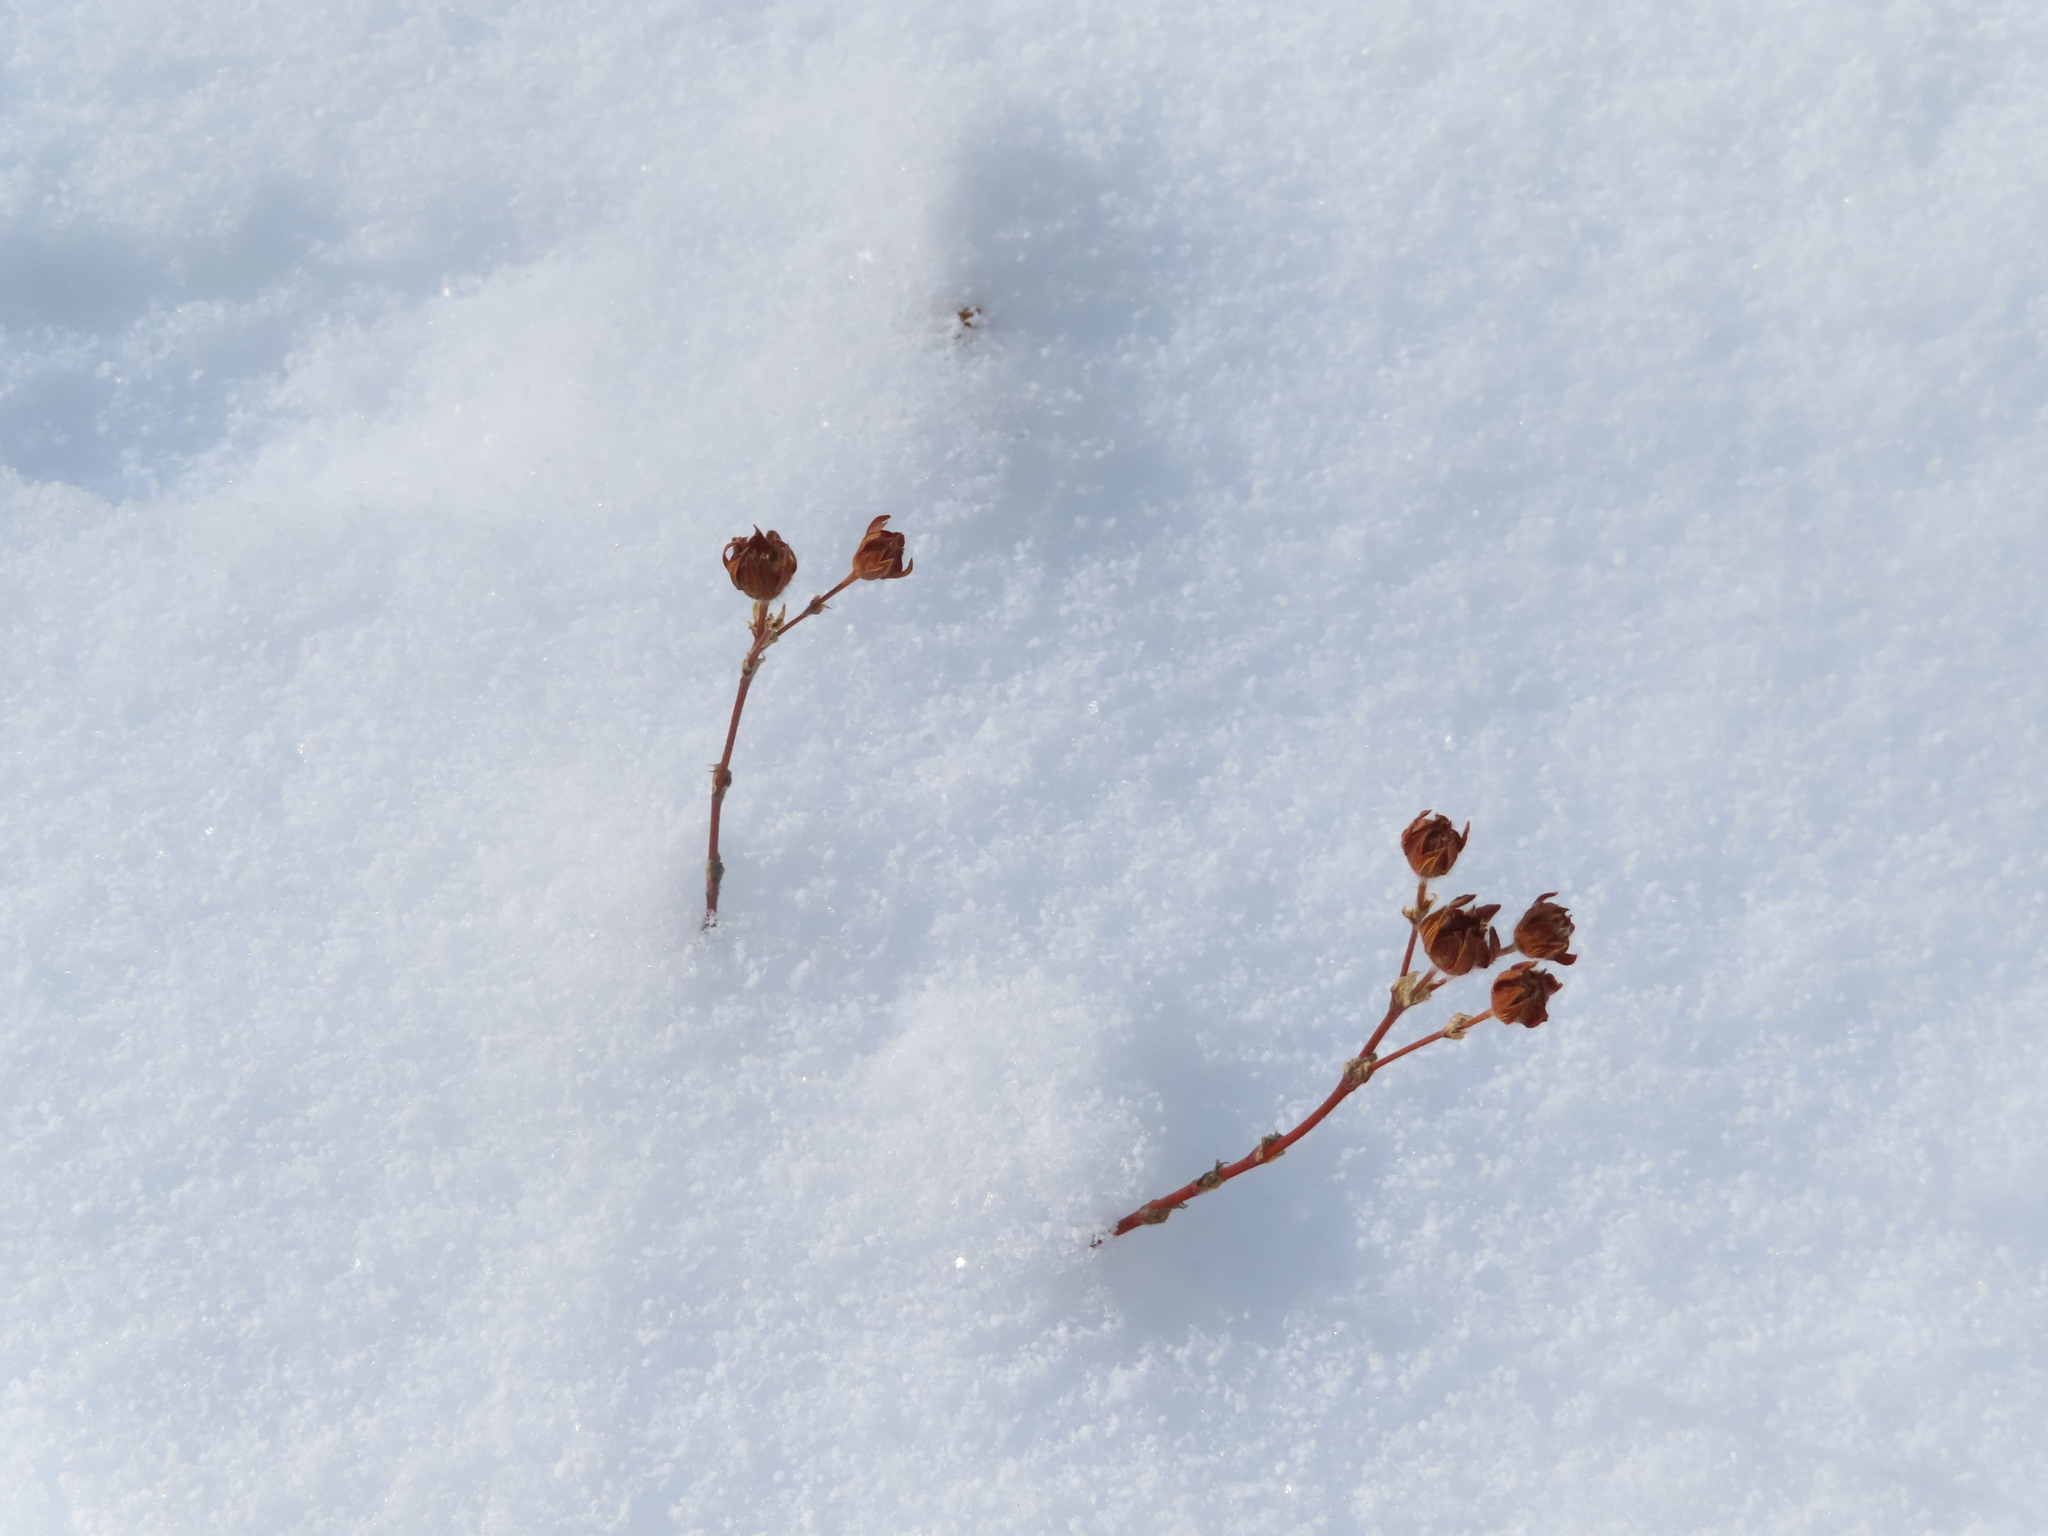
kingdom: Plantae
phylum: Tracheophyta
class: Magnoliopsida
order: Rosales
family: Rosaceae
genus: Dasiphora
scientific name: Dasiphora fruticosa
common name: Shrubby cinquefoil
